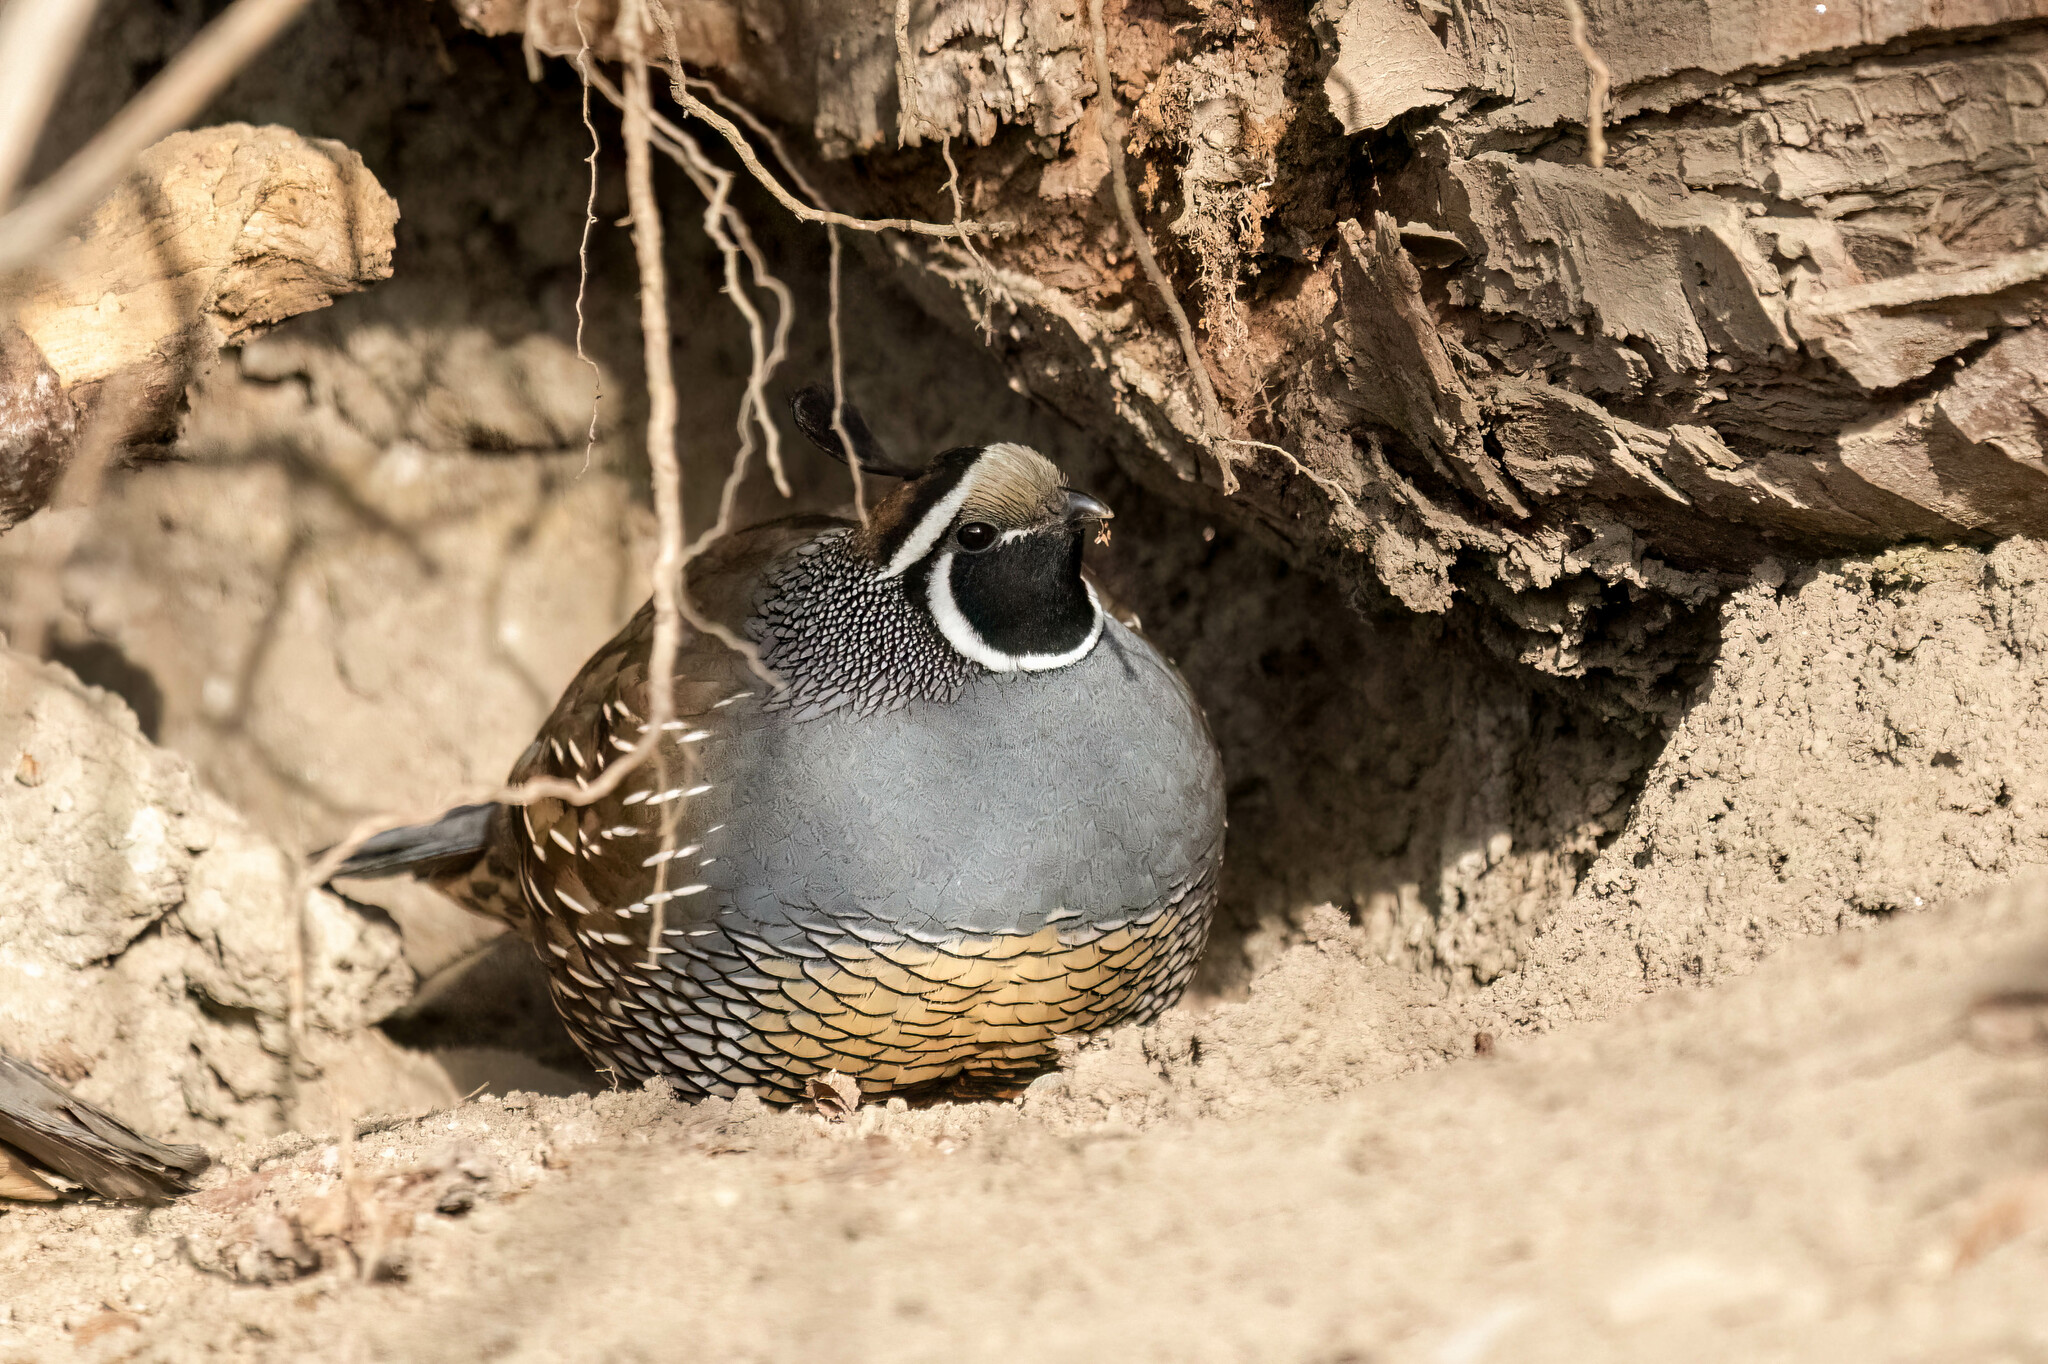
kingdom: Animalia
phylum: Chordata
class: Aves
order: Galliformes
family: Odontophoridae
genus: Callipepla
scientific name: Callipepla californica
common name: California quail
